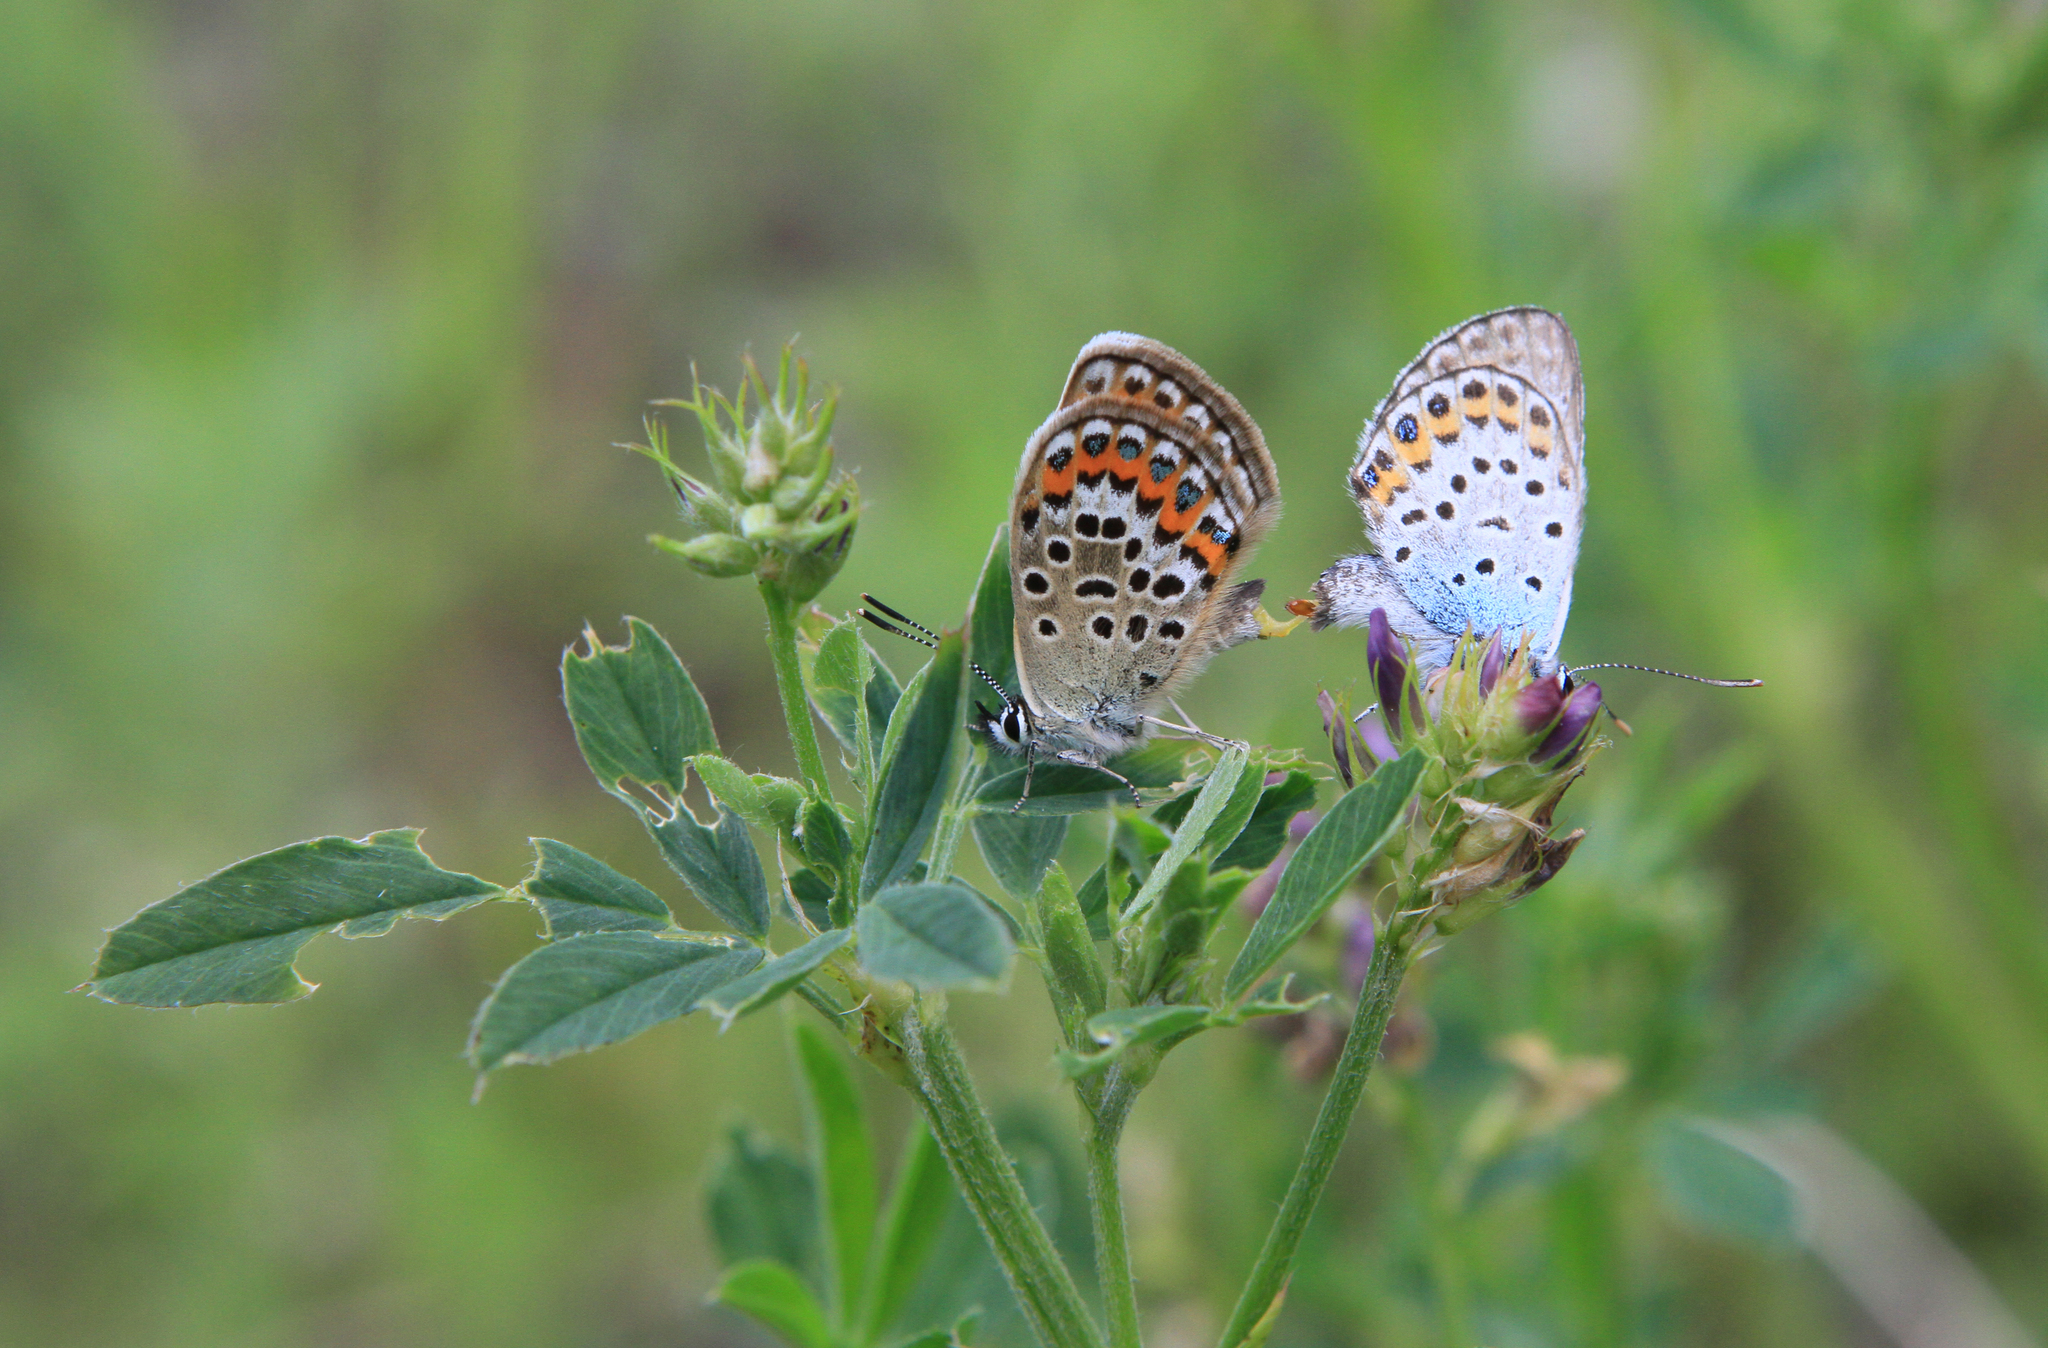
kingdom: Animalia
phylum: Arthropoda
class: Insecta
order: Lepidoptera
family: Lycaenidae
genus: Plebejus
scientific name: Plebejus argus
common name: Silver-studded blue
